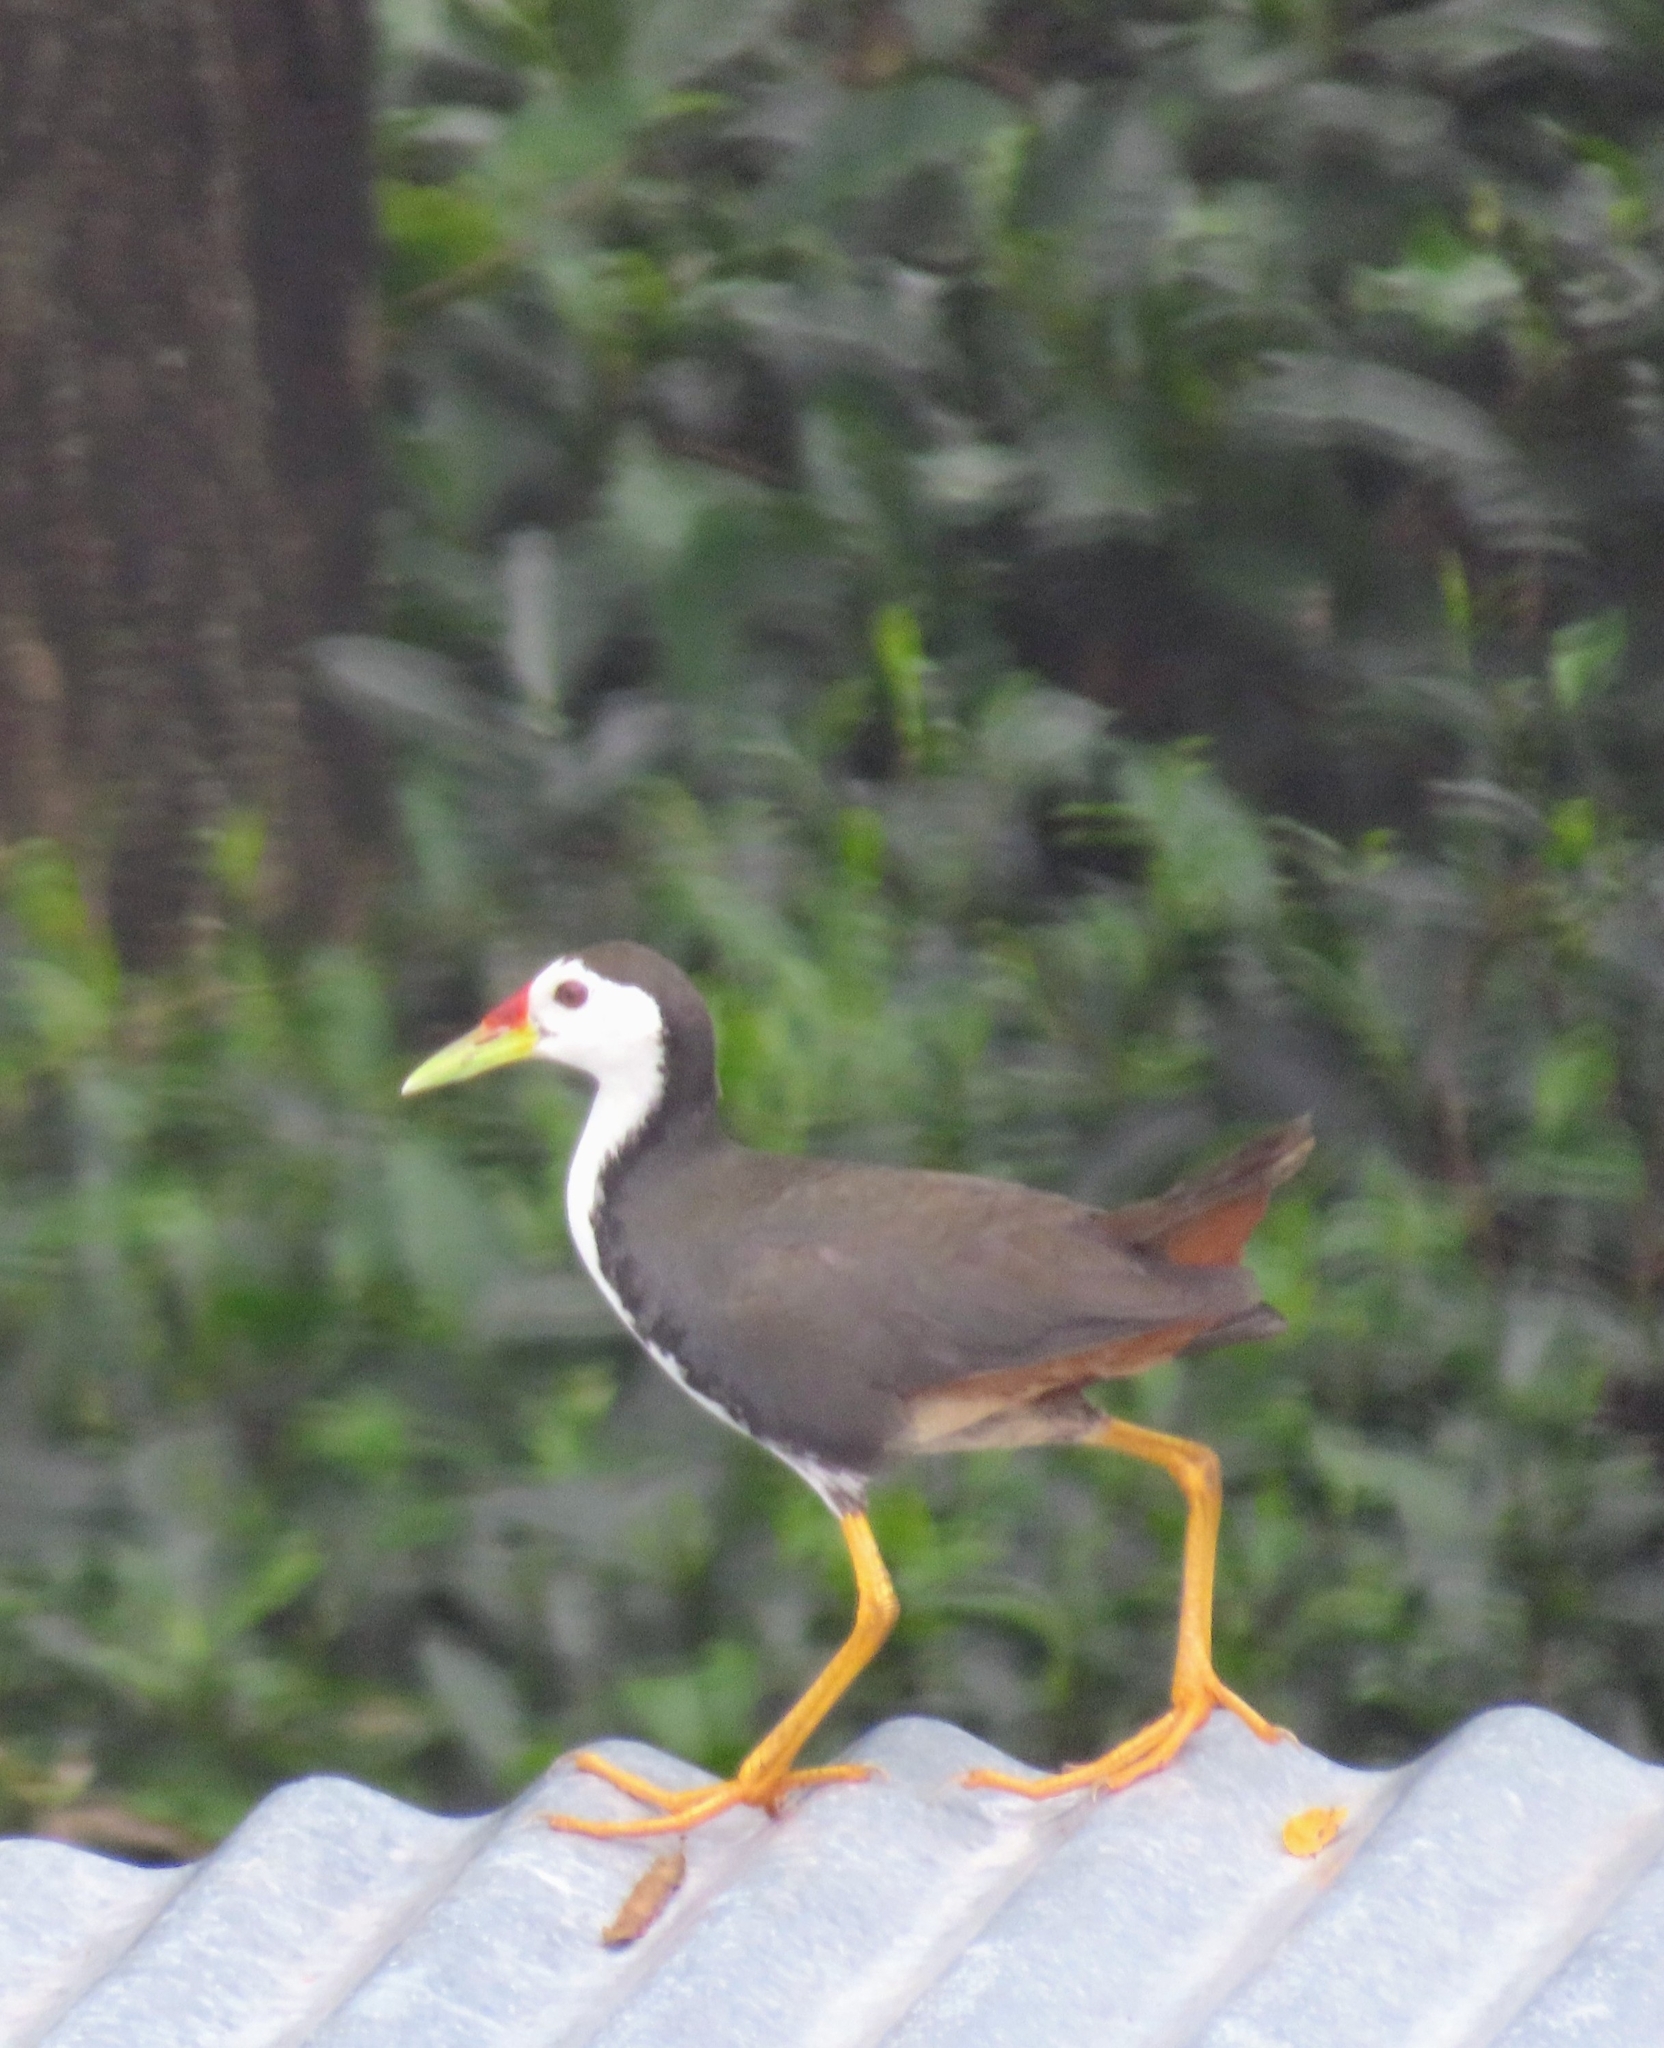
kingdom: Animalia
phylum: Chordata
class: Aves
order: Gruiformes
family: Rallidae
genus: Amaurornis
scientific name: Amaurornis phoenicurus
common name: White-breasted waterhen
